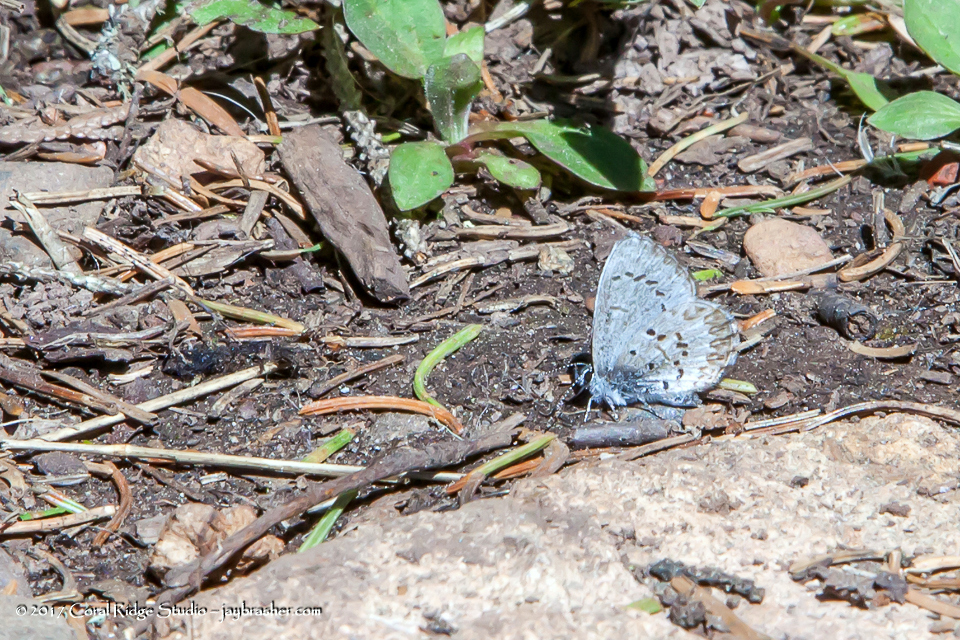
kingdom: Animalia
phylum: Arthropoda
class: Insecta
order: Lepidoptera
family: Lycaenidae
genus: Celastrina
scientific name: Celastrina lucia
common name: Lucia azure
